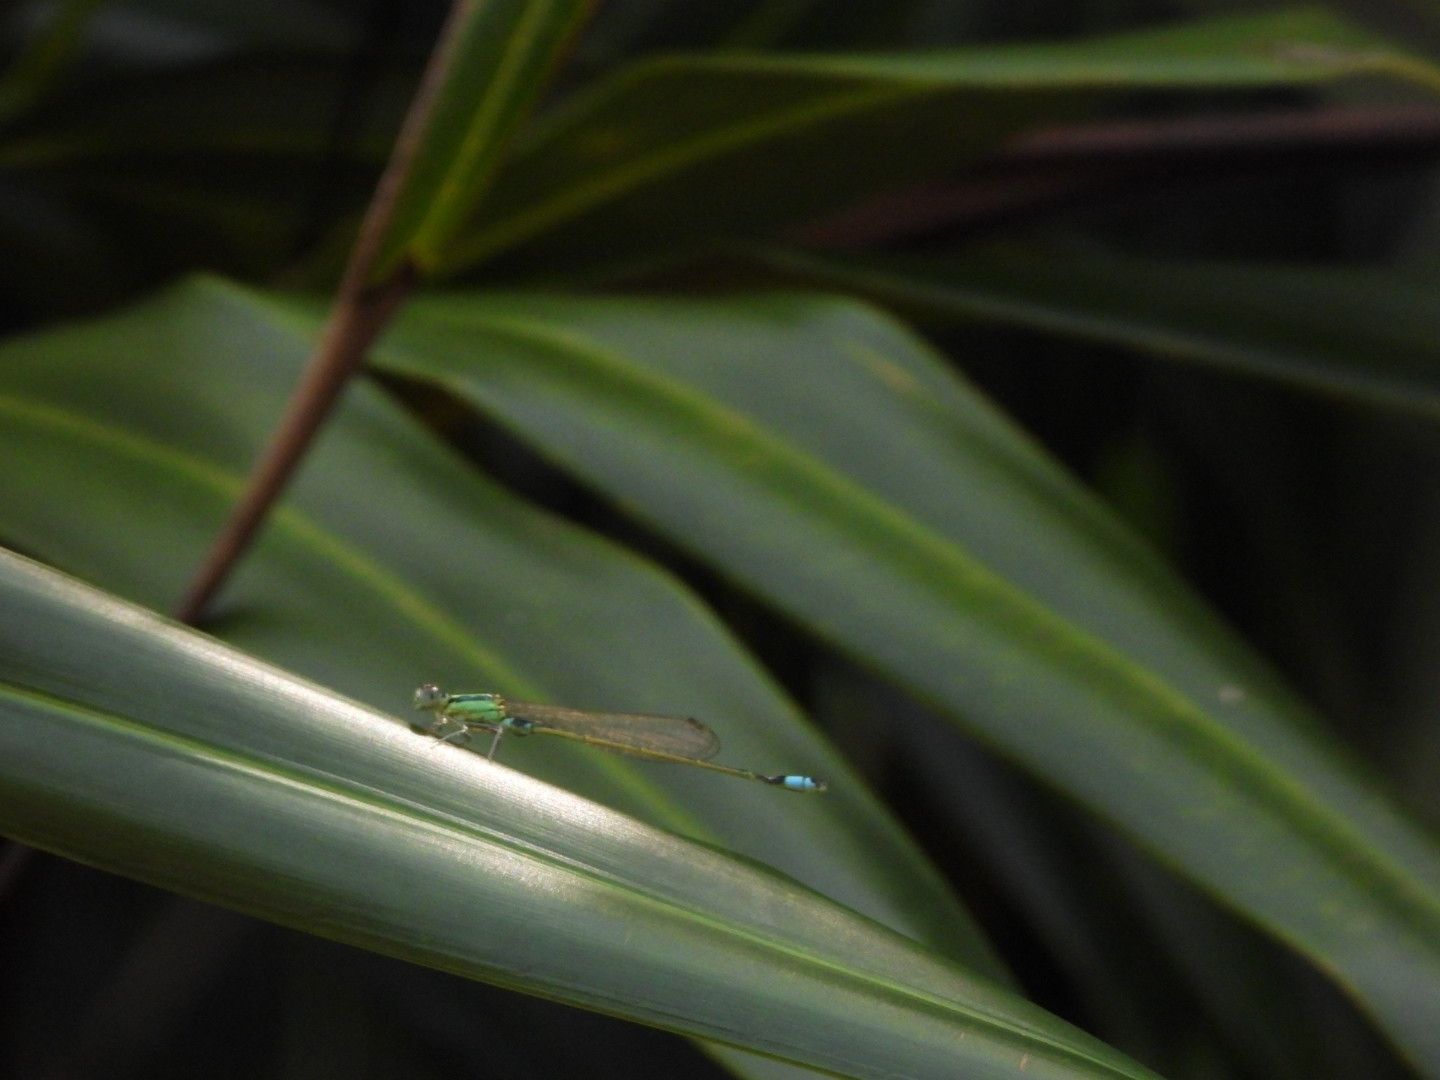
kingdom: Animalia
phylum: Arthropoda
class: Insecta
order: Odonata
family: Coenagrionidae
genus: Ischnura
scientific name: Ischnura senegalensis
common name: Tropical bluetail
